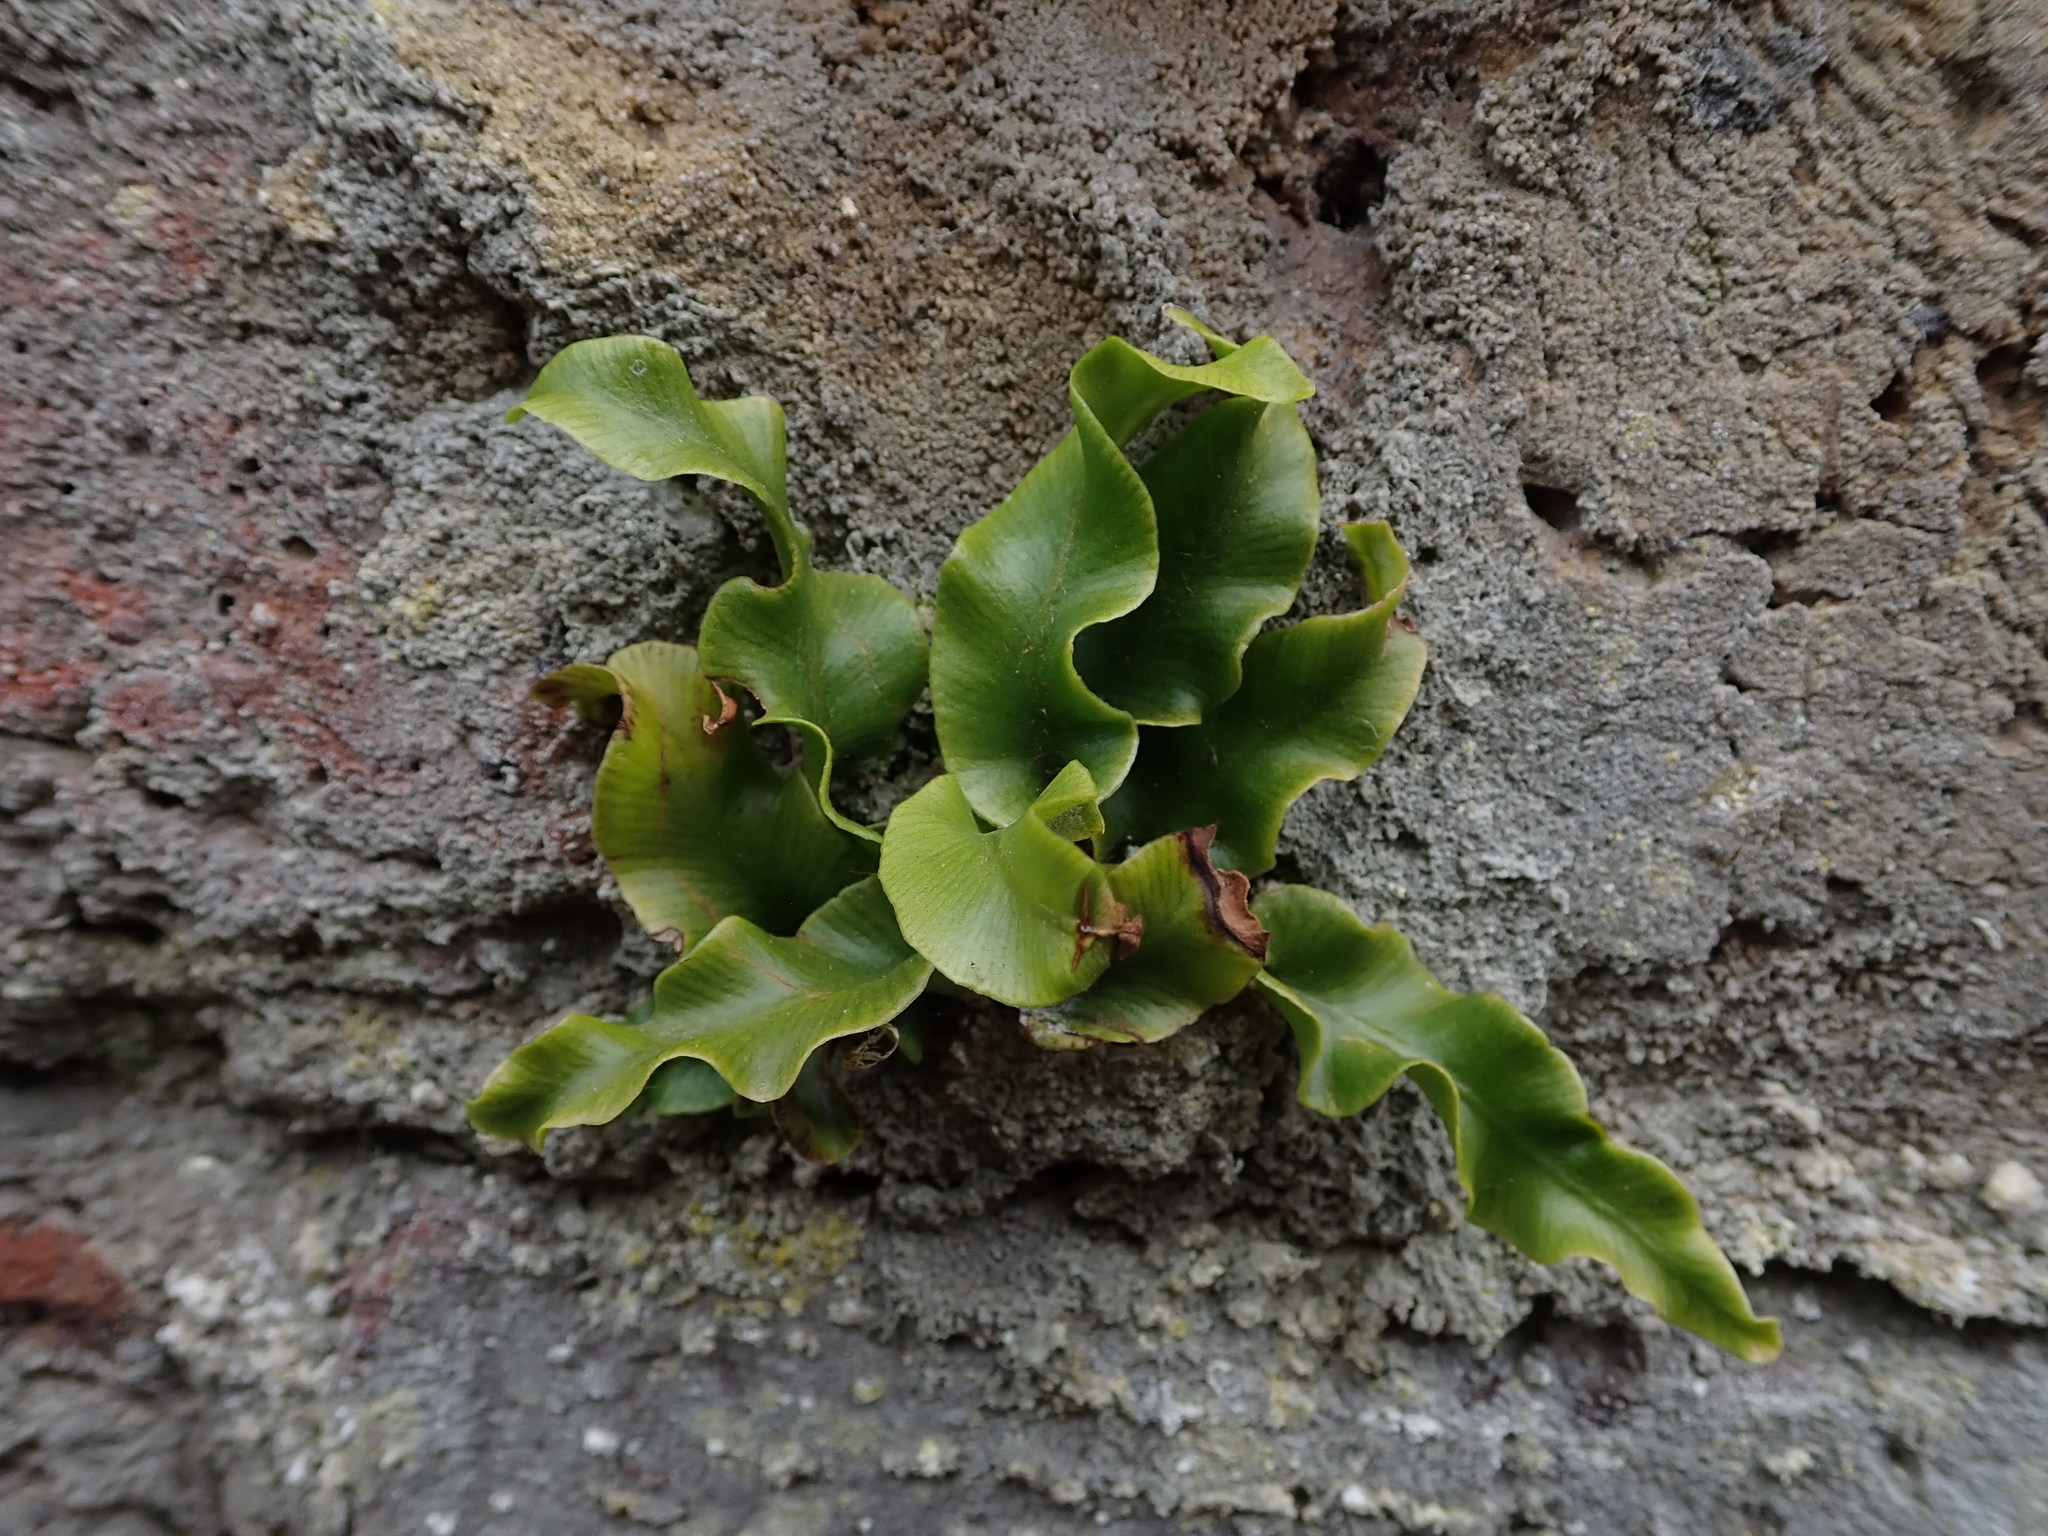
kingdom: Plantae
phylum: Tracheophyta
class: Polypodiopsida
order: Polypodiales
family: Aspleniaceae
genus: Asplenium
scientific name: Asplenium scolopendrium
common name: Hart's-tongue fern
